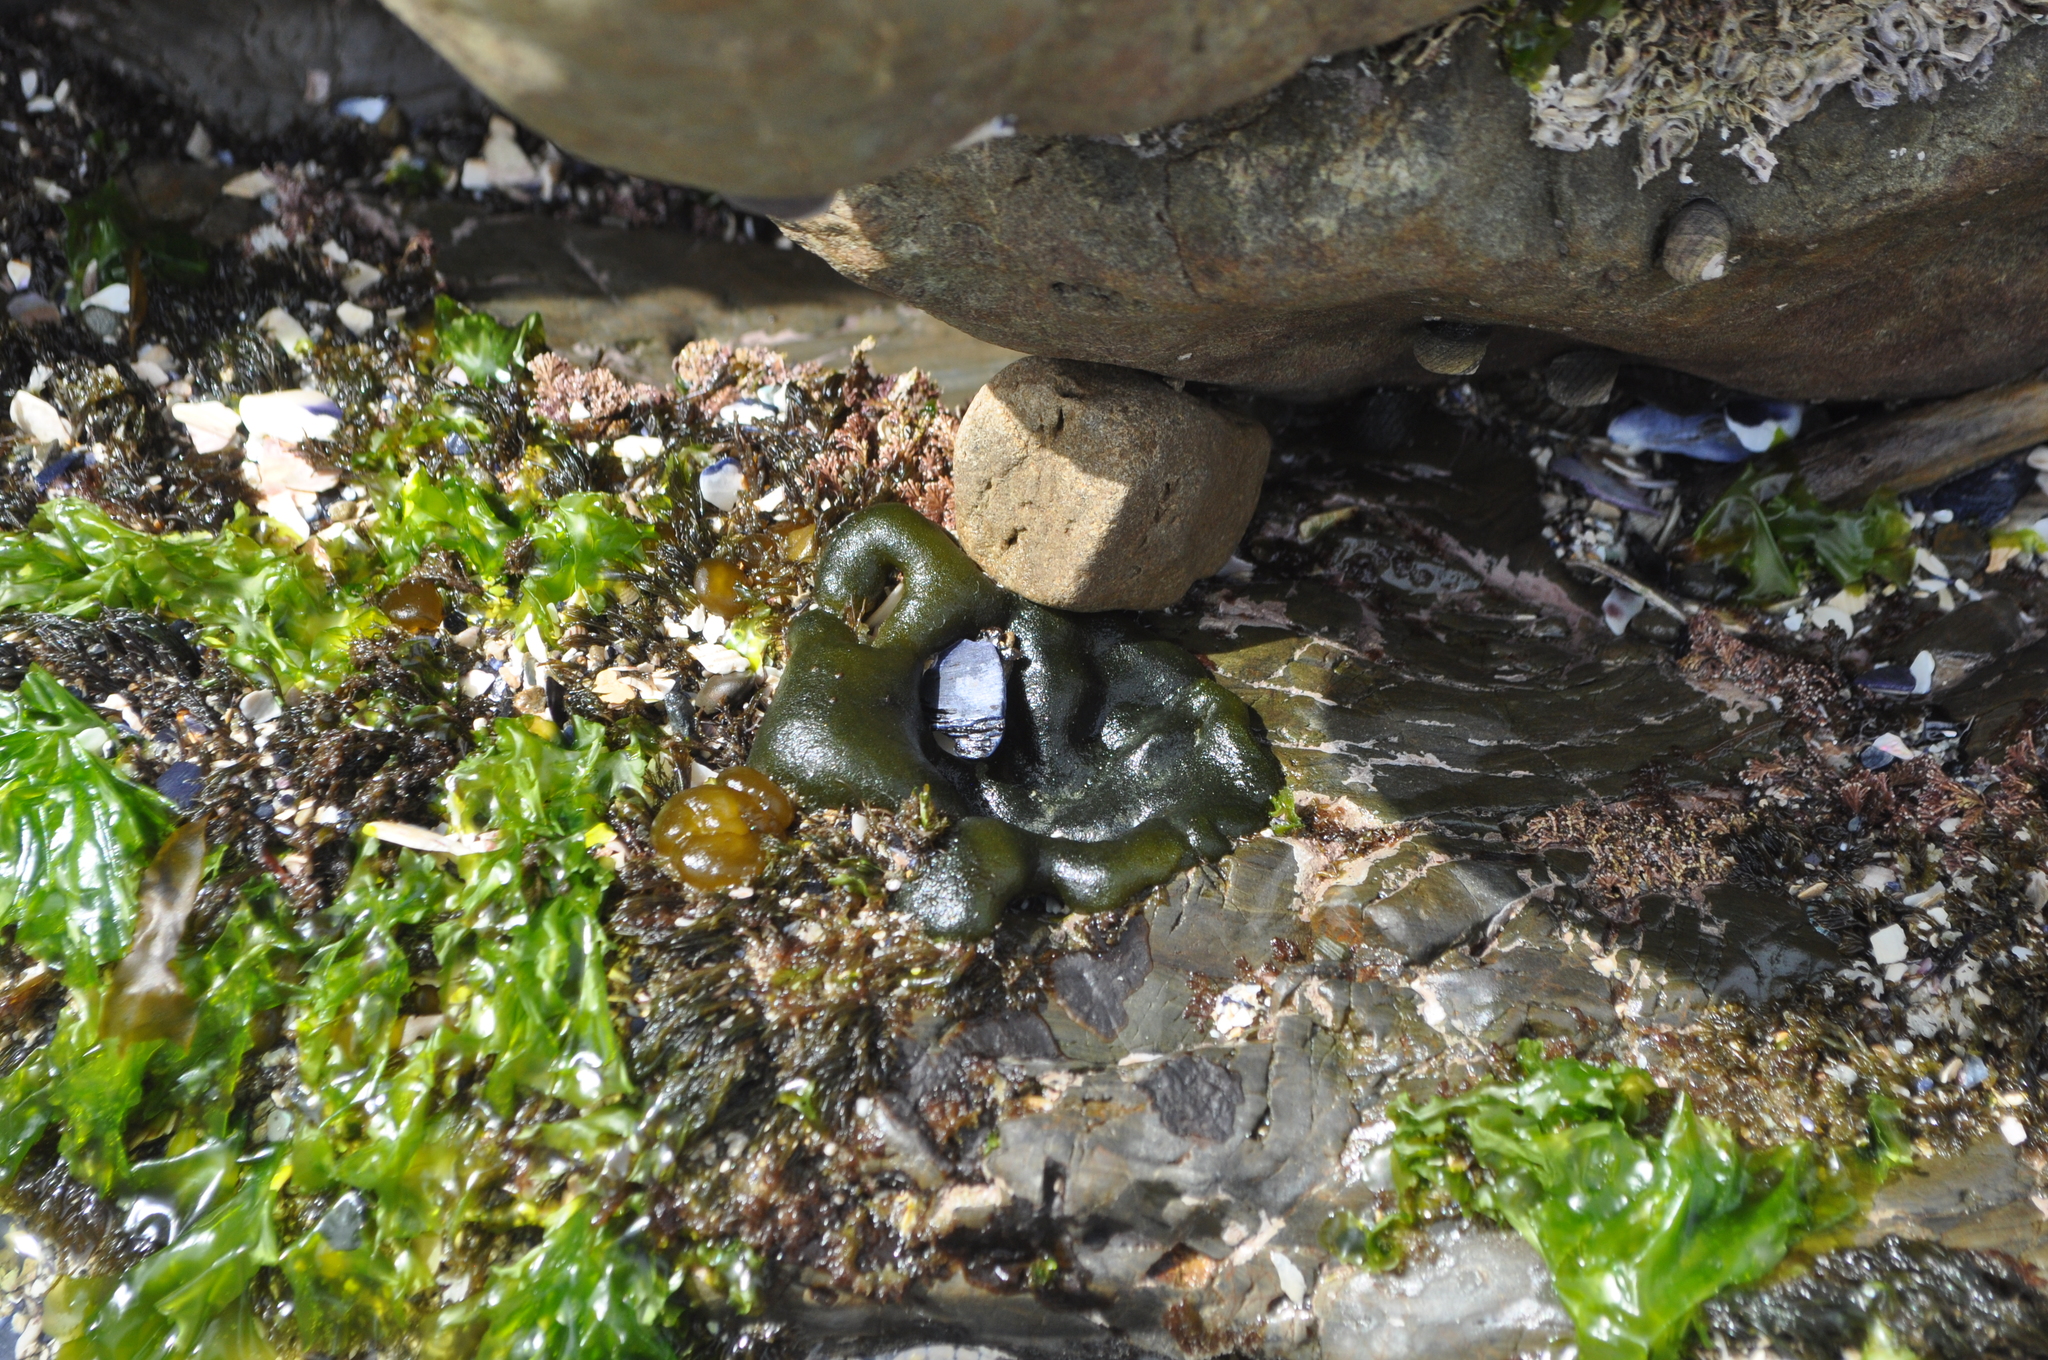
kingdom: Plantae
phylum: Chlorophyta
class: Ulvophyceae
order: Bryopsidales
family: Codiaceae
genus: Codium
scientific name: Codium convolutum
